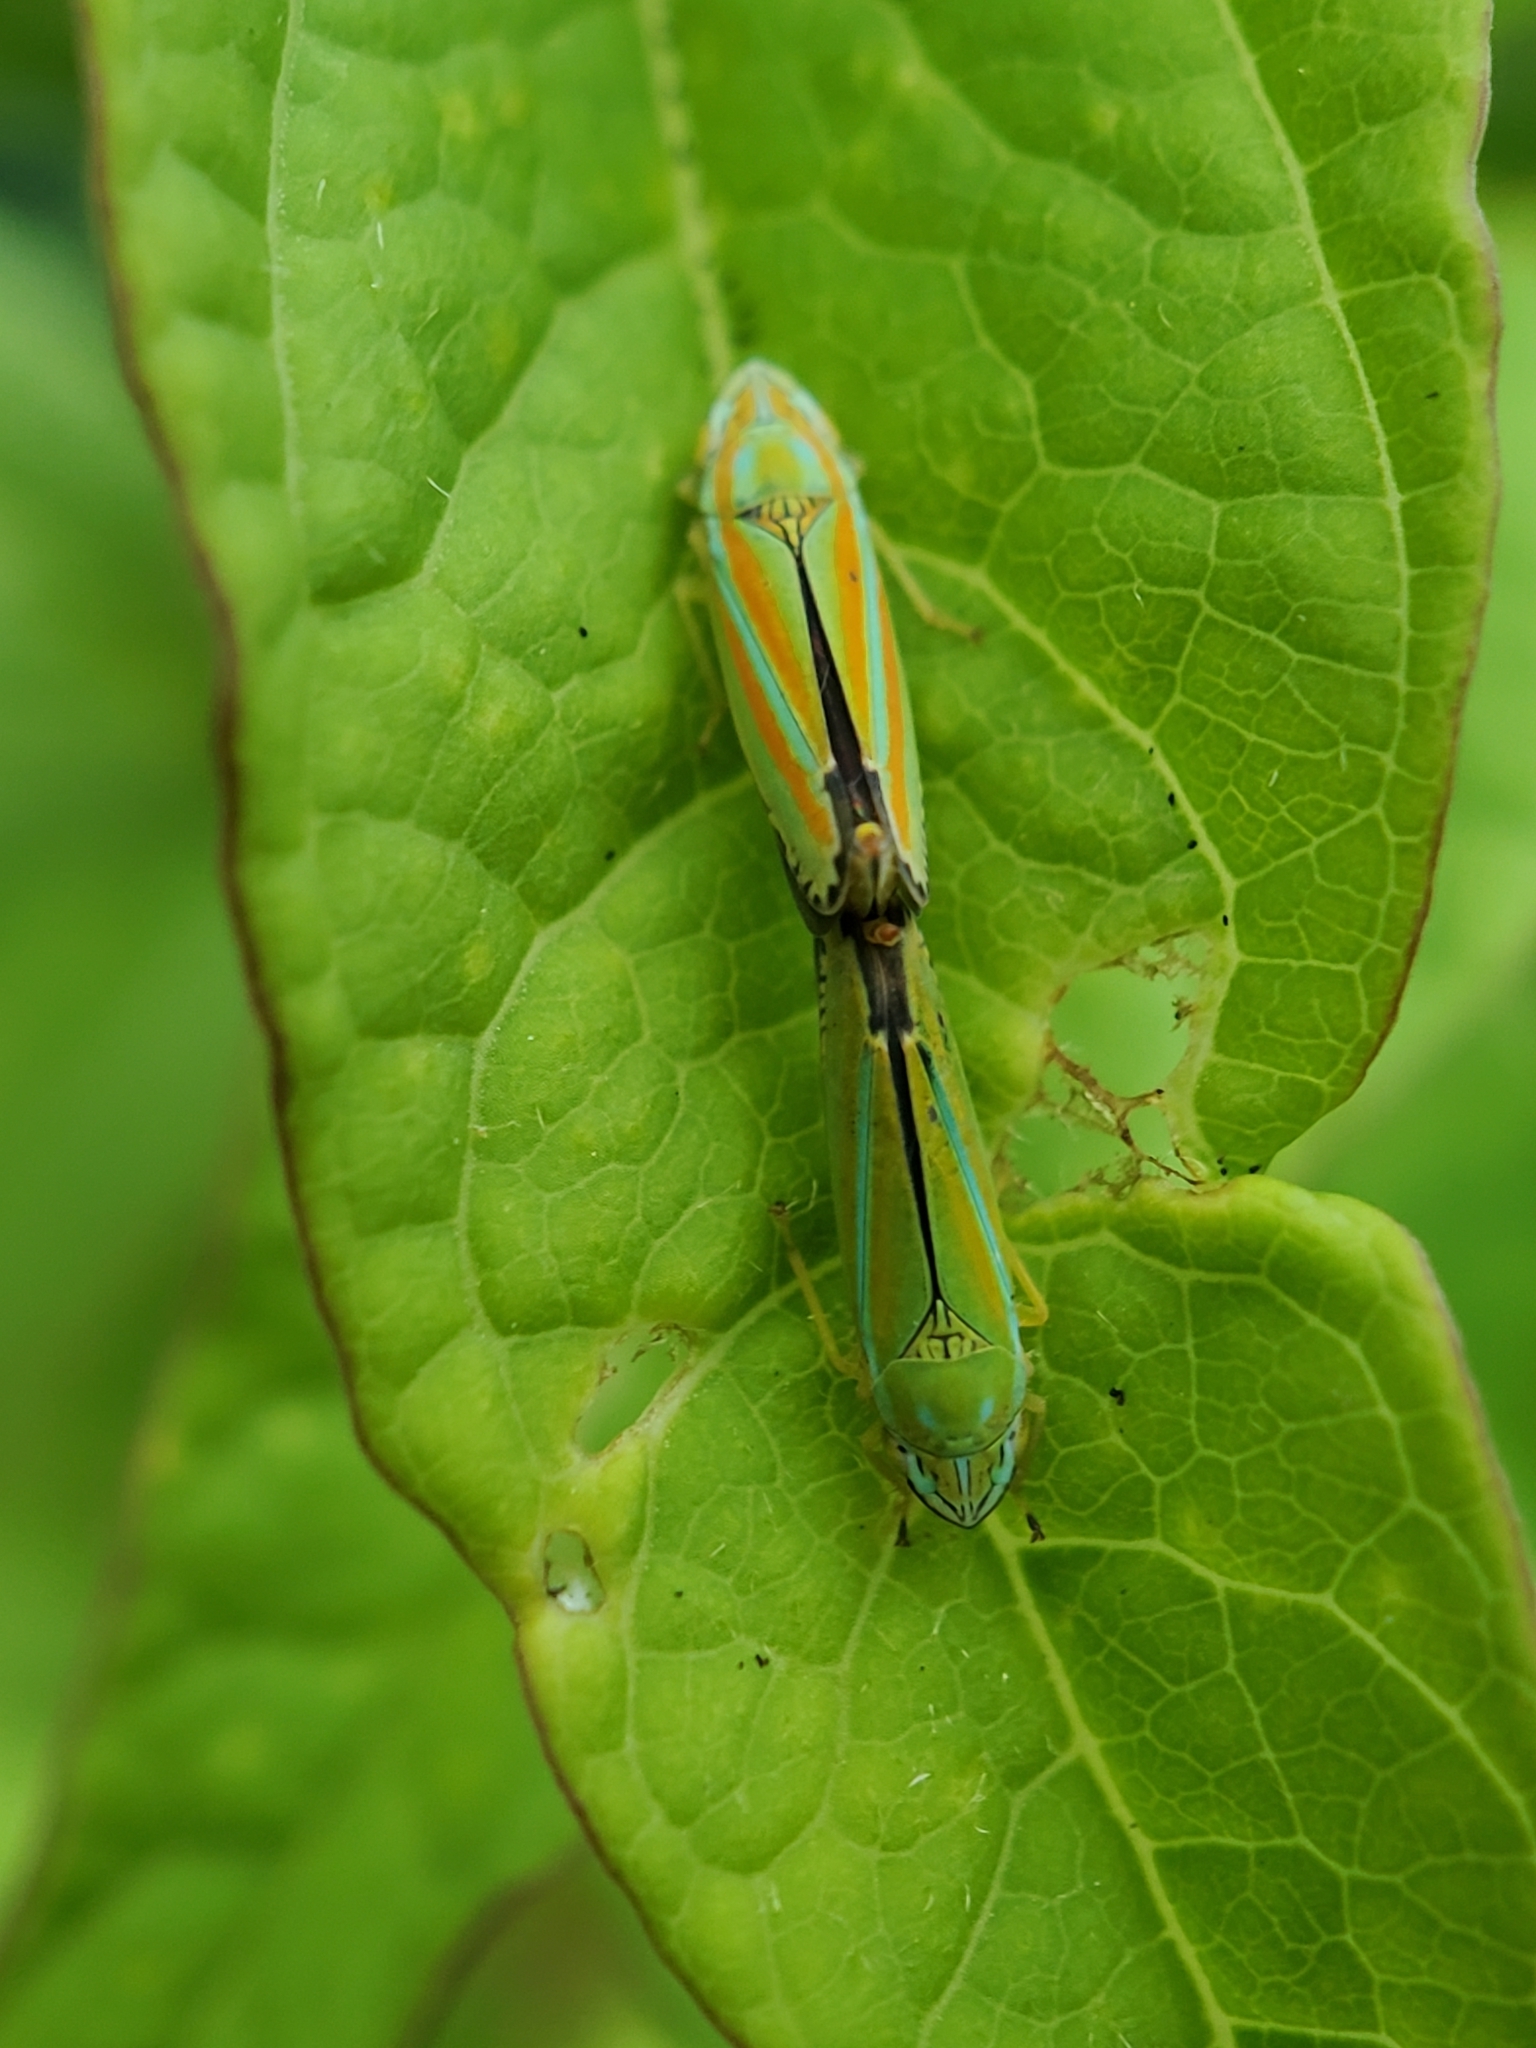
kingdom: Animalia
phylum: Arthropoda
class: Insecta
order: Hemiptera
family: Cicadellidae
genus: Graphocephala
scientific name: Graphocephala versuta
